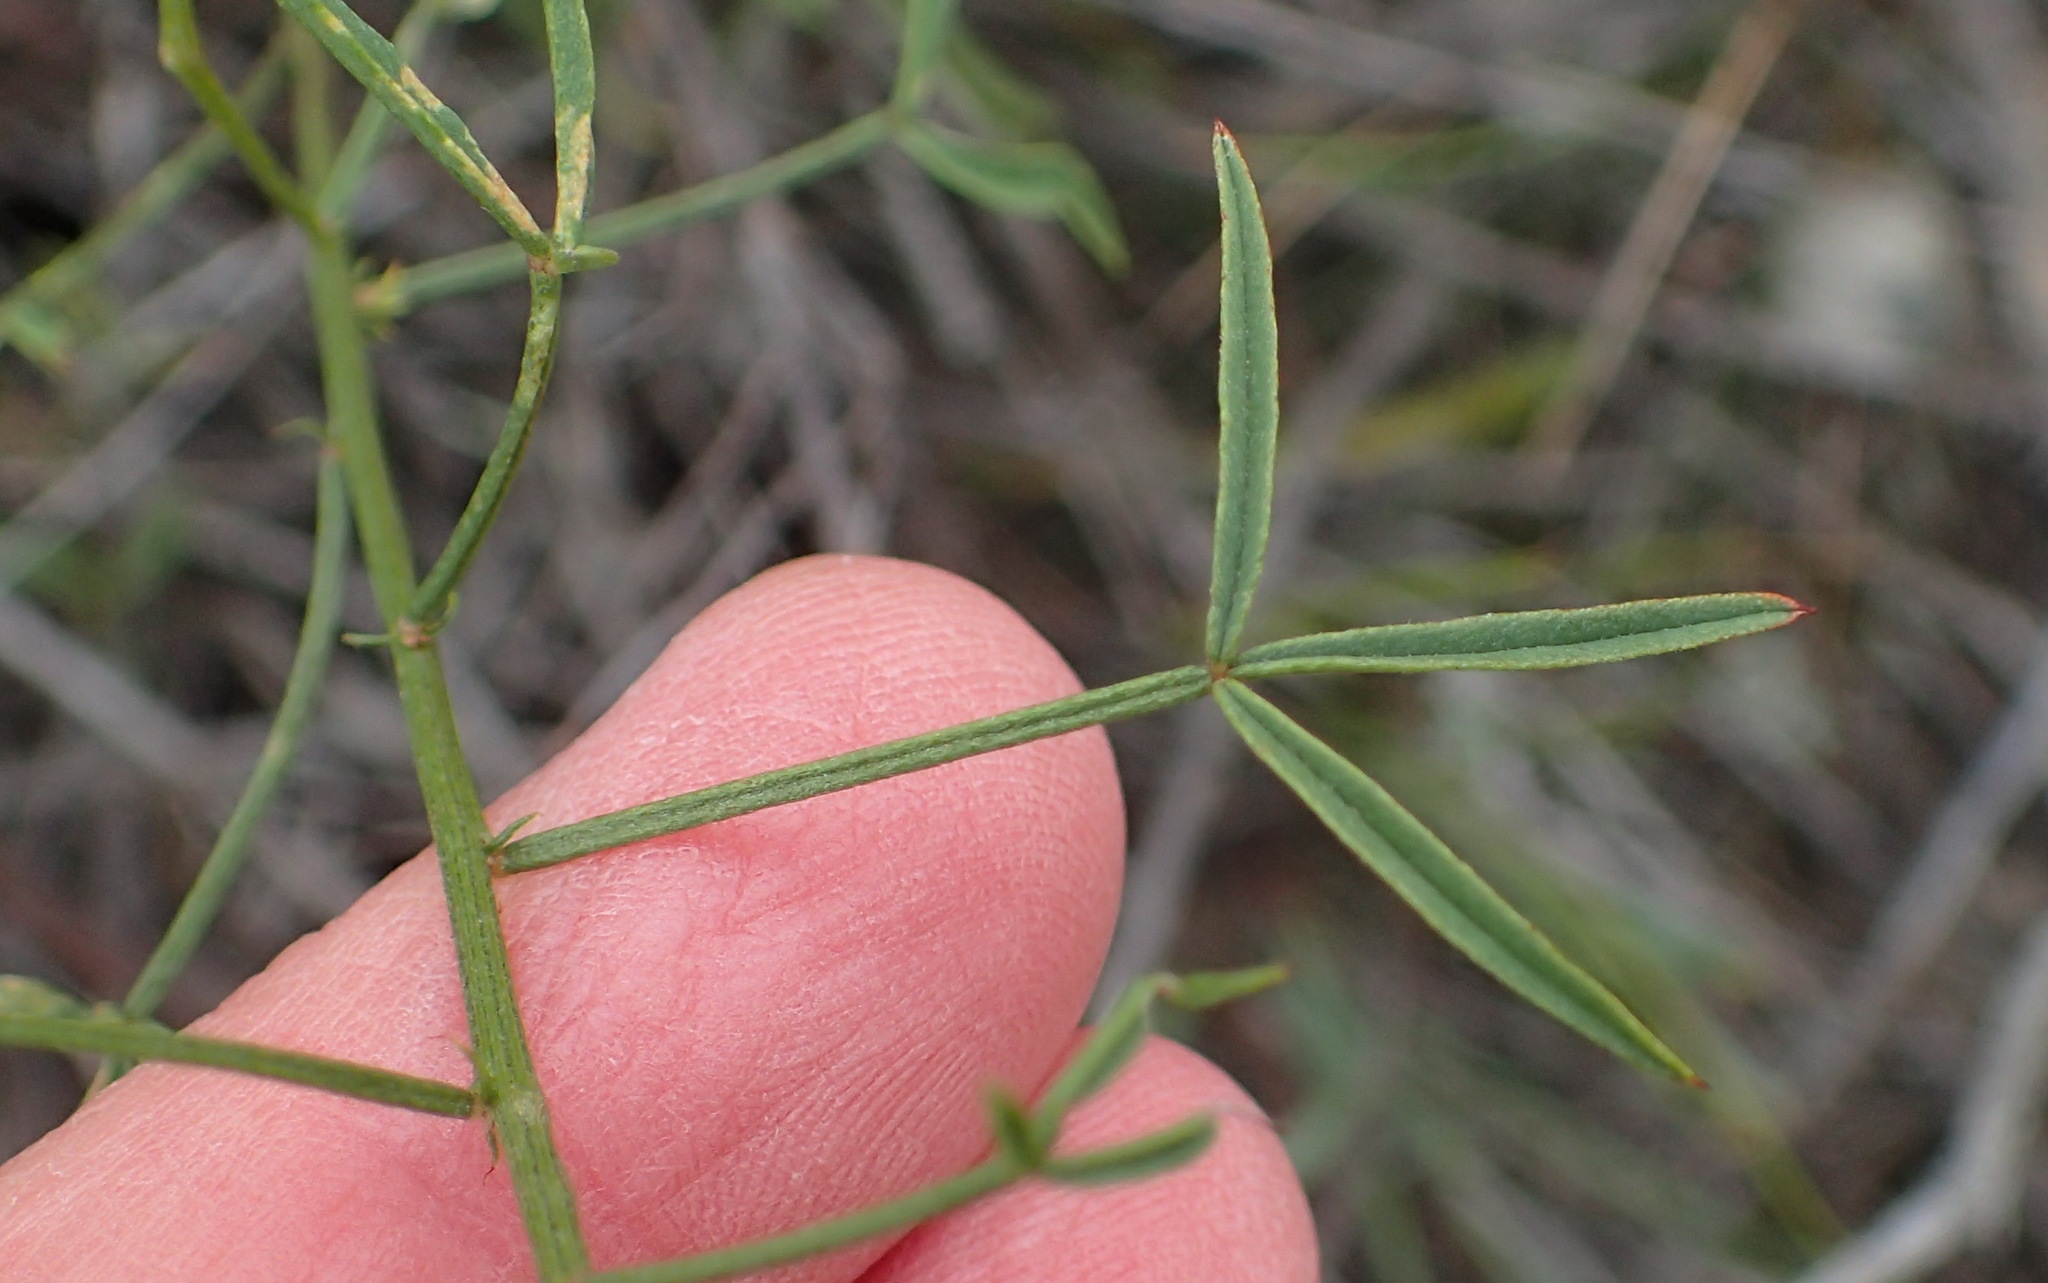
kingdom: Plantae
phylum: Tracheophyta
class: Magnoliopsida
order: Fabales
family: Fabaceae
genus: Indigofera
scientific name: Indigofera heterophylla
